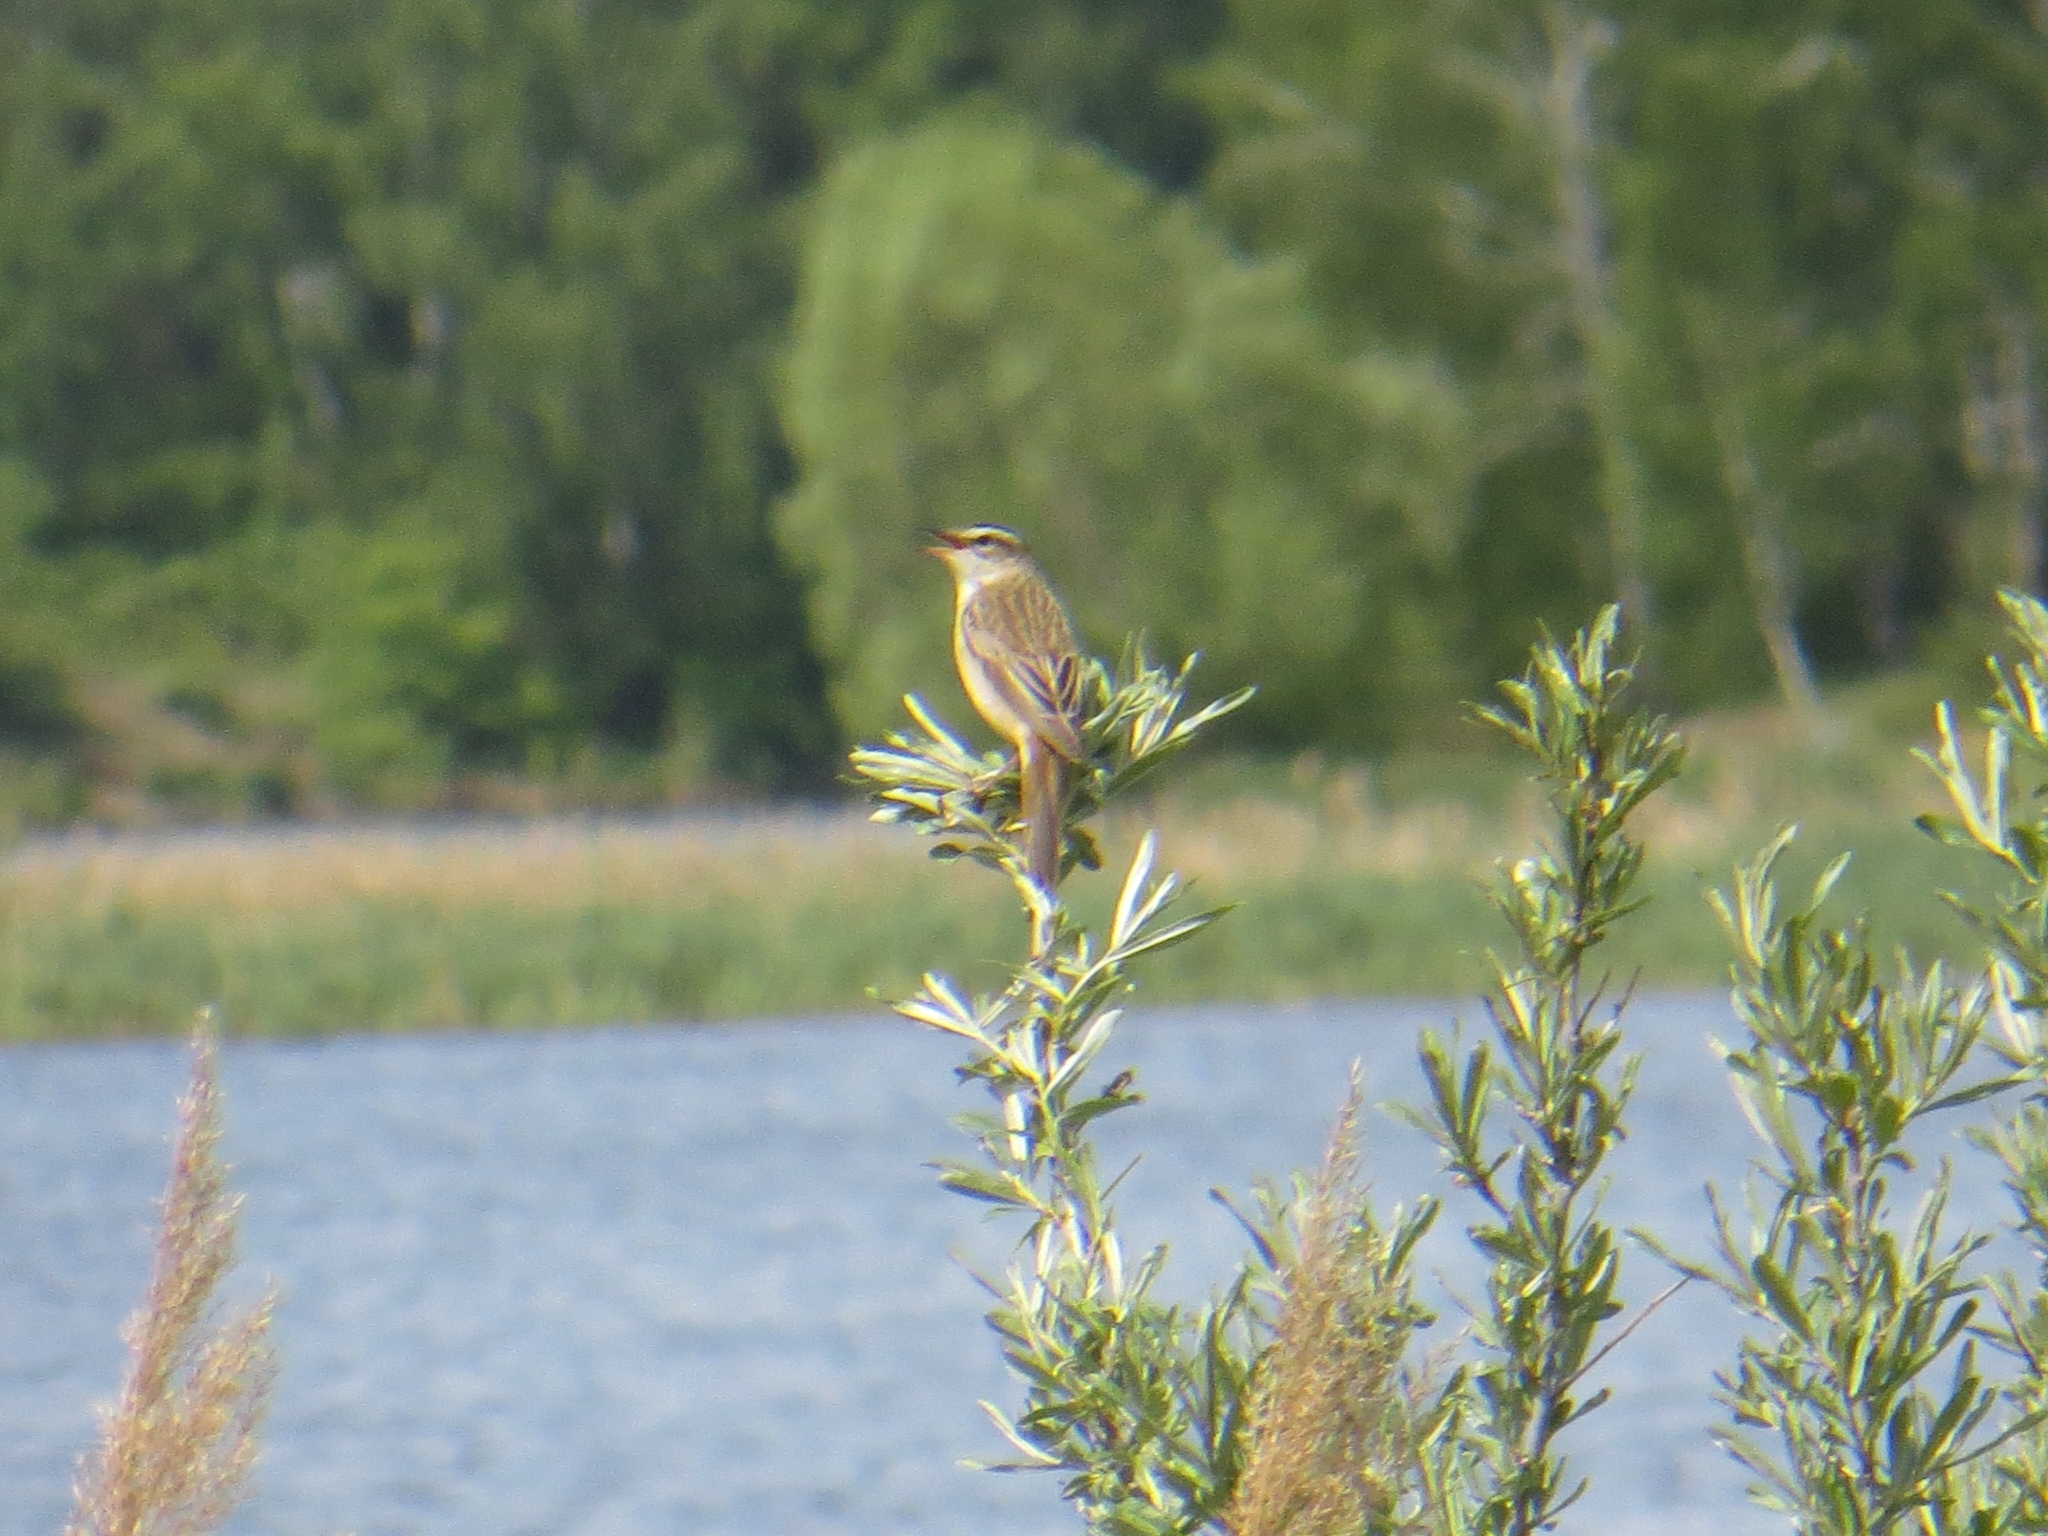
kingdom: Animalia
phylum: Chordata
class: Aves
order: Passeriformes
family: Acrocephalidae
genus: Acrocephalus
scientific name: Acrocephalus schoenobaenus
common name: Sedge warbler
